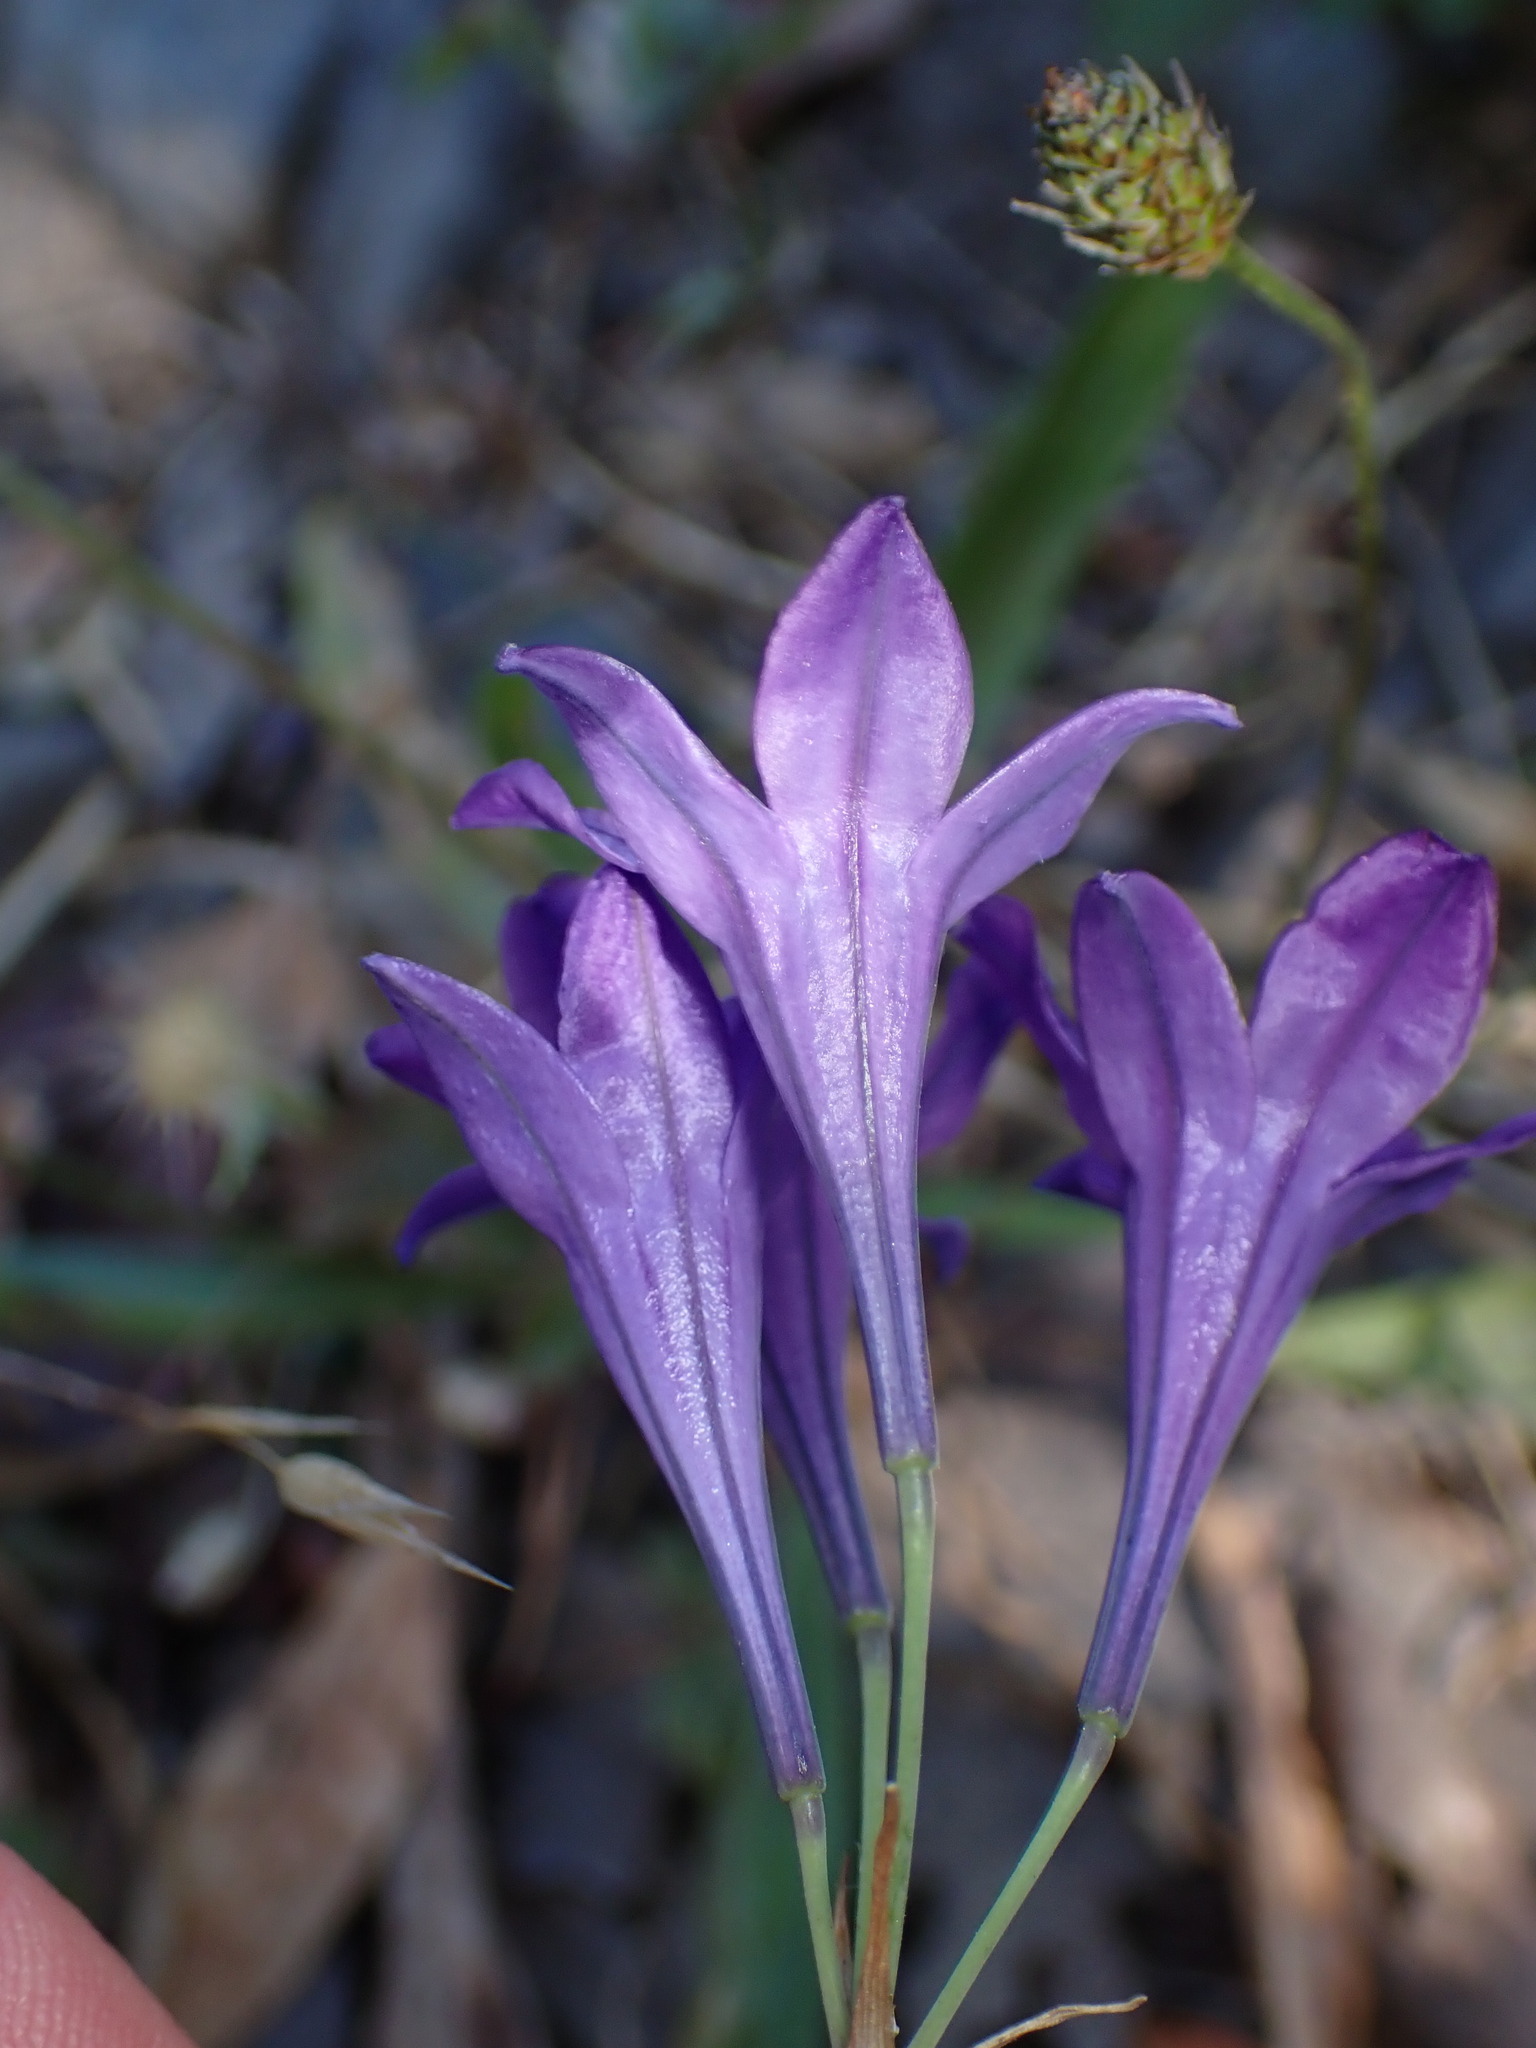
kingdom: Plantae
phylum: Tracheophyta
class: Liliopsida
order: Asparagales
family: Asparagaceae
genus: Triteleia
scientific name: Triteleia laxa
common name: Triplet-lily
